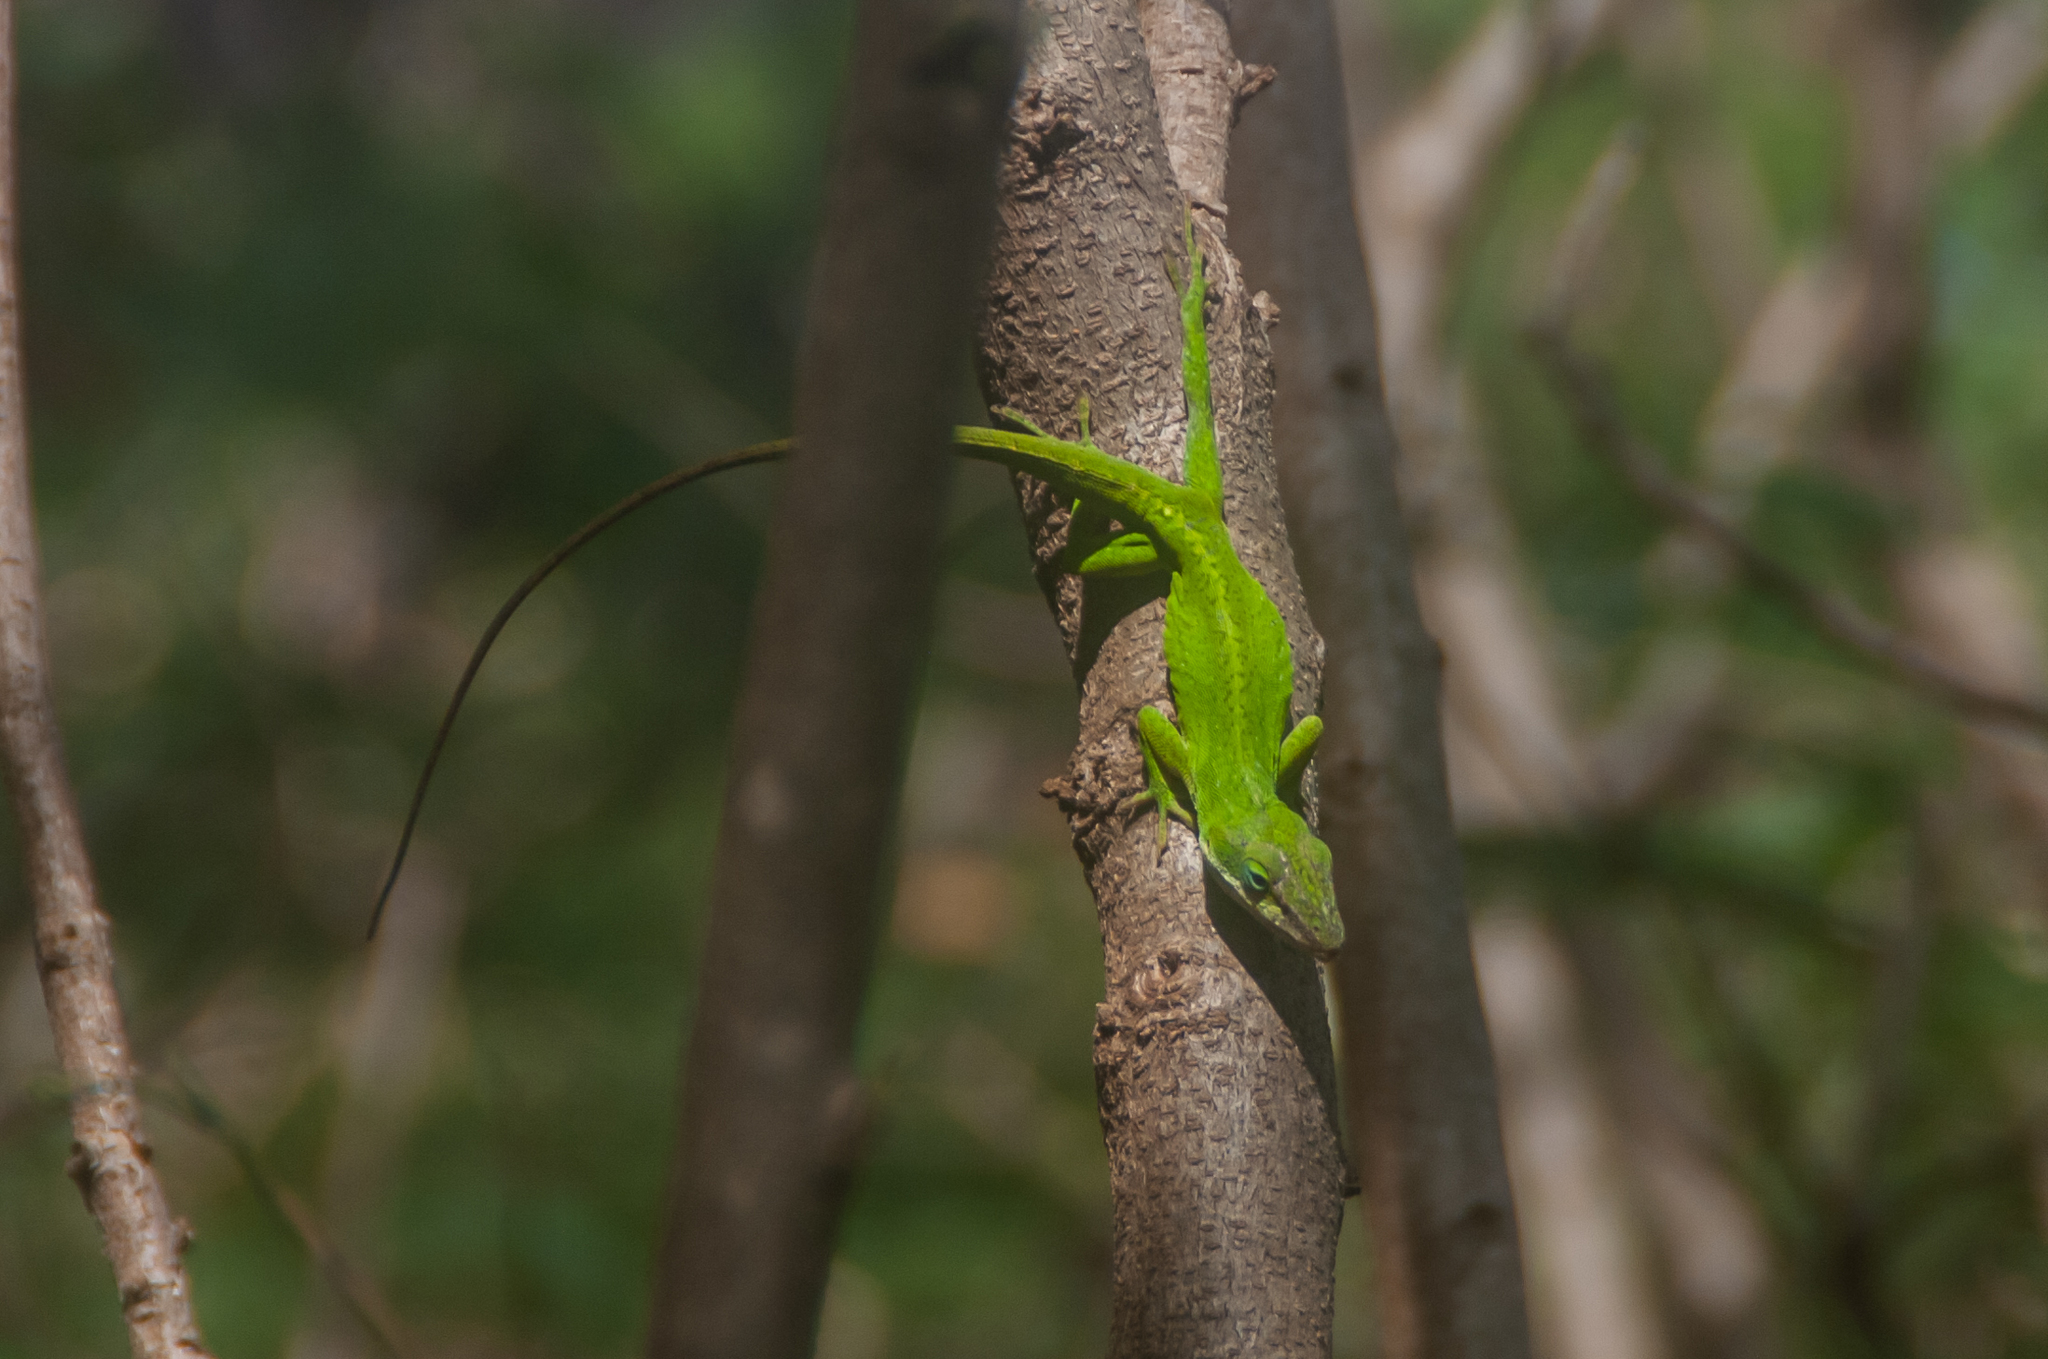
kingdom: Animalia
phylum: Chordata
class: Squamata
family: Dactyloidae
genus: Anolis
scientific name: Anolis carolinensis
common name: Green anole
